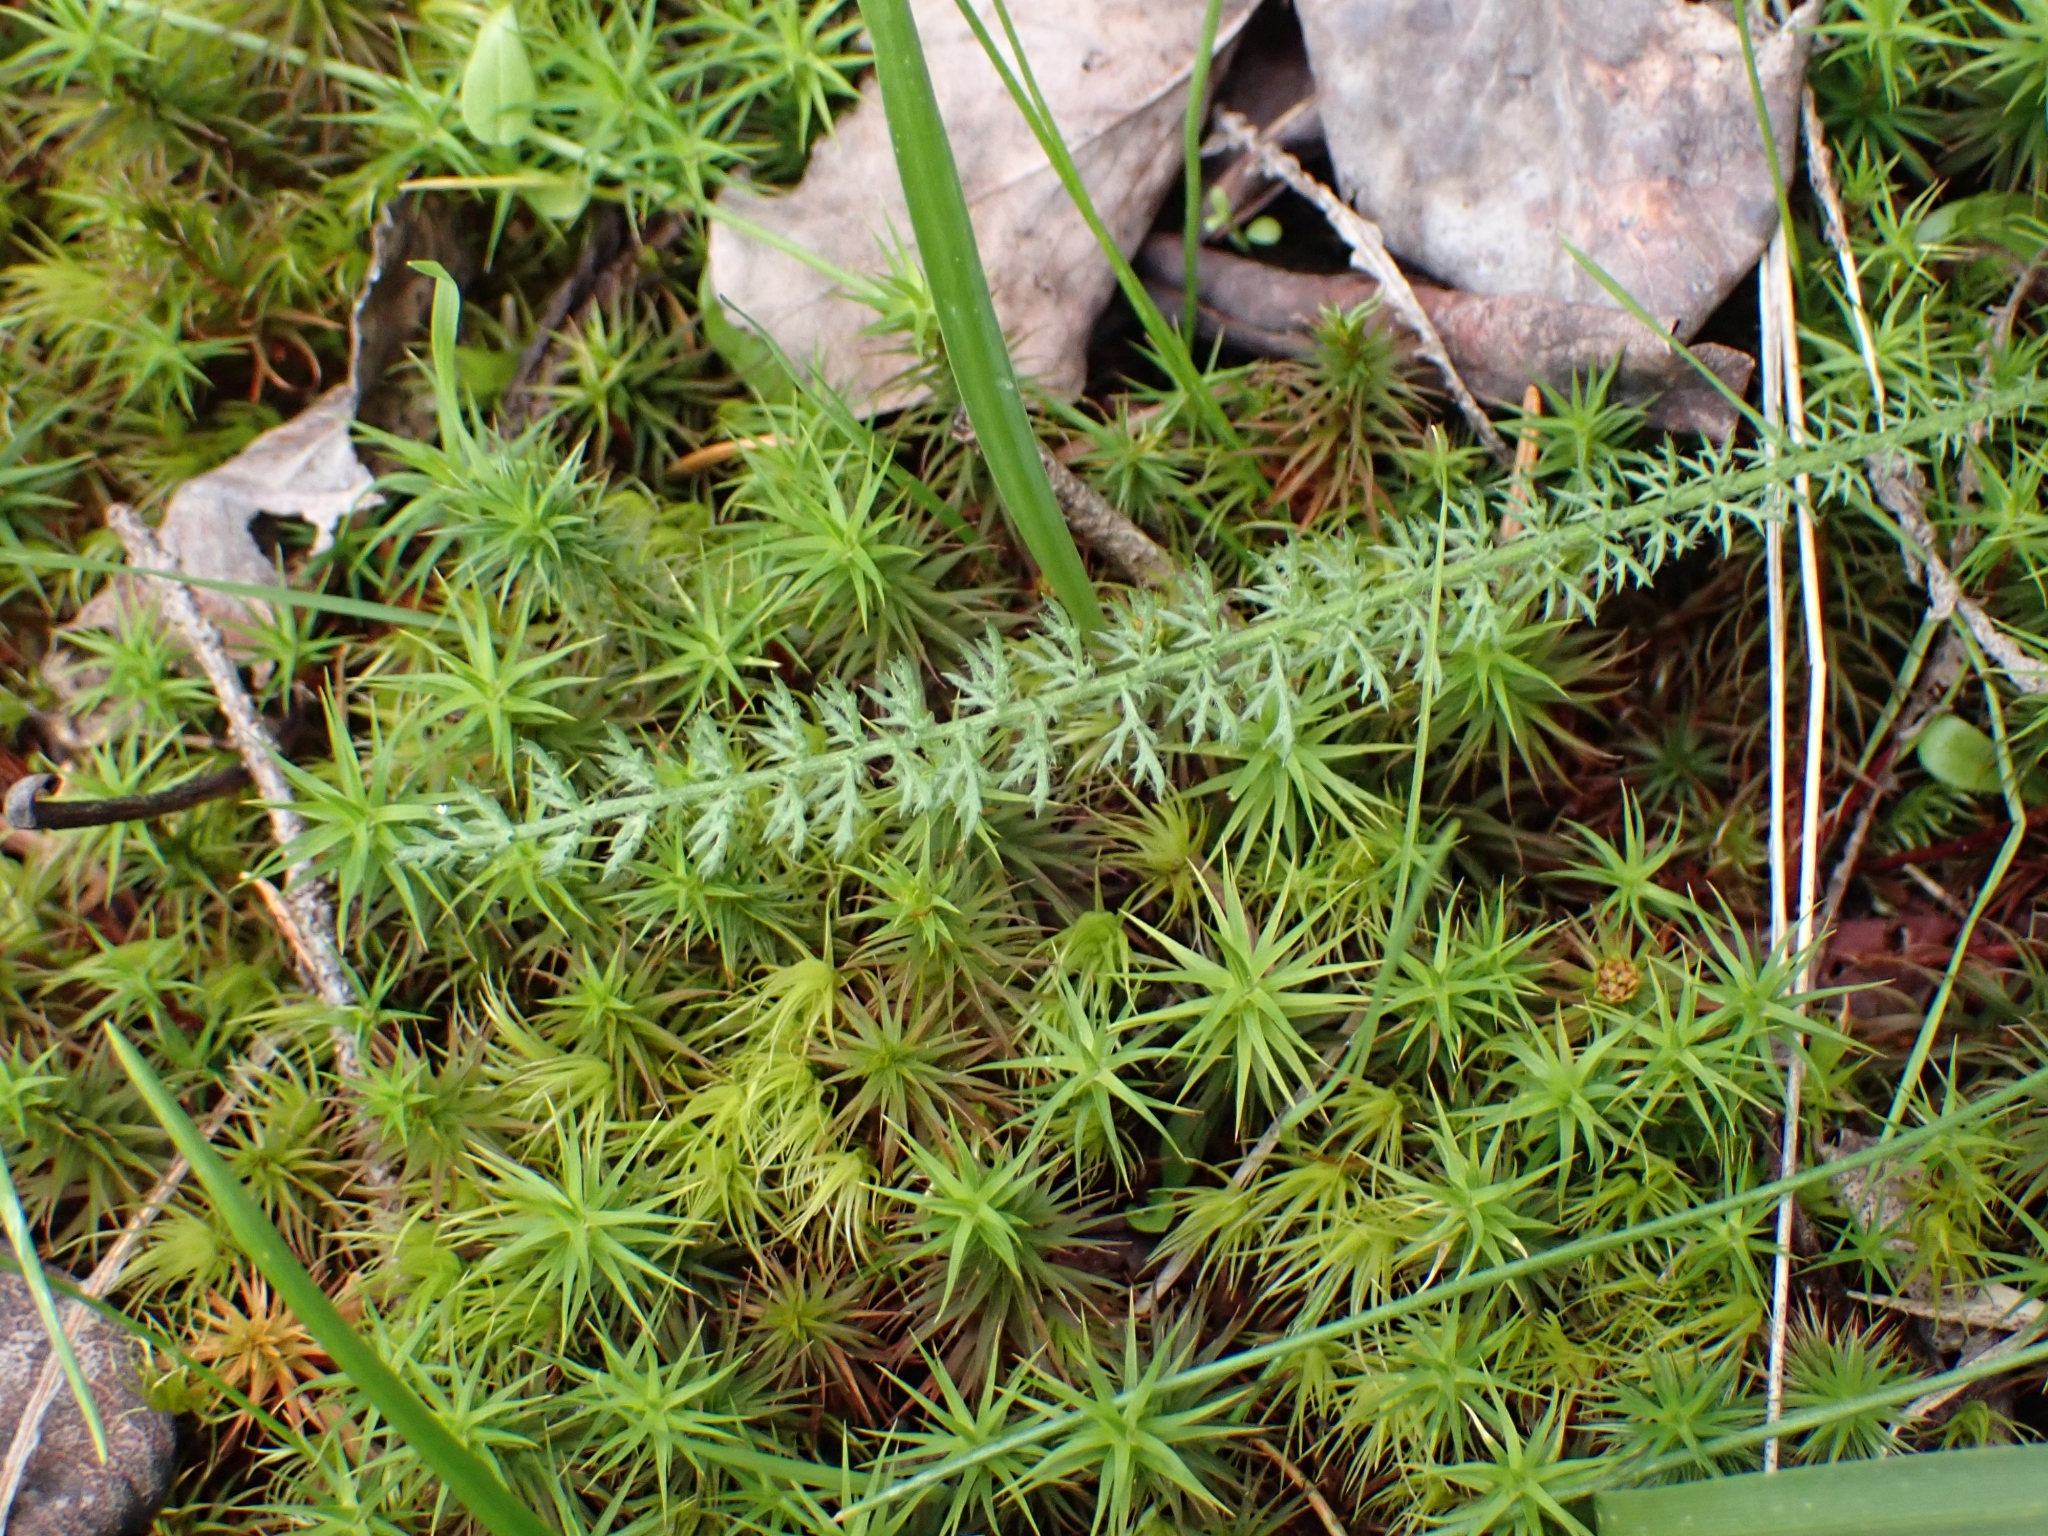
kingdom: Plantae
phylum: Tracheophyta
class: Magnoliopsida
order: Asterales
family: Asteraceae
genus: Achillea
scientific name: Achillea millefolium
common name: Yarrow
